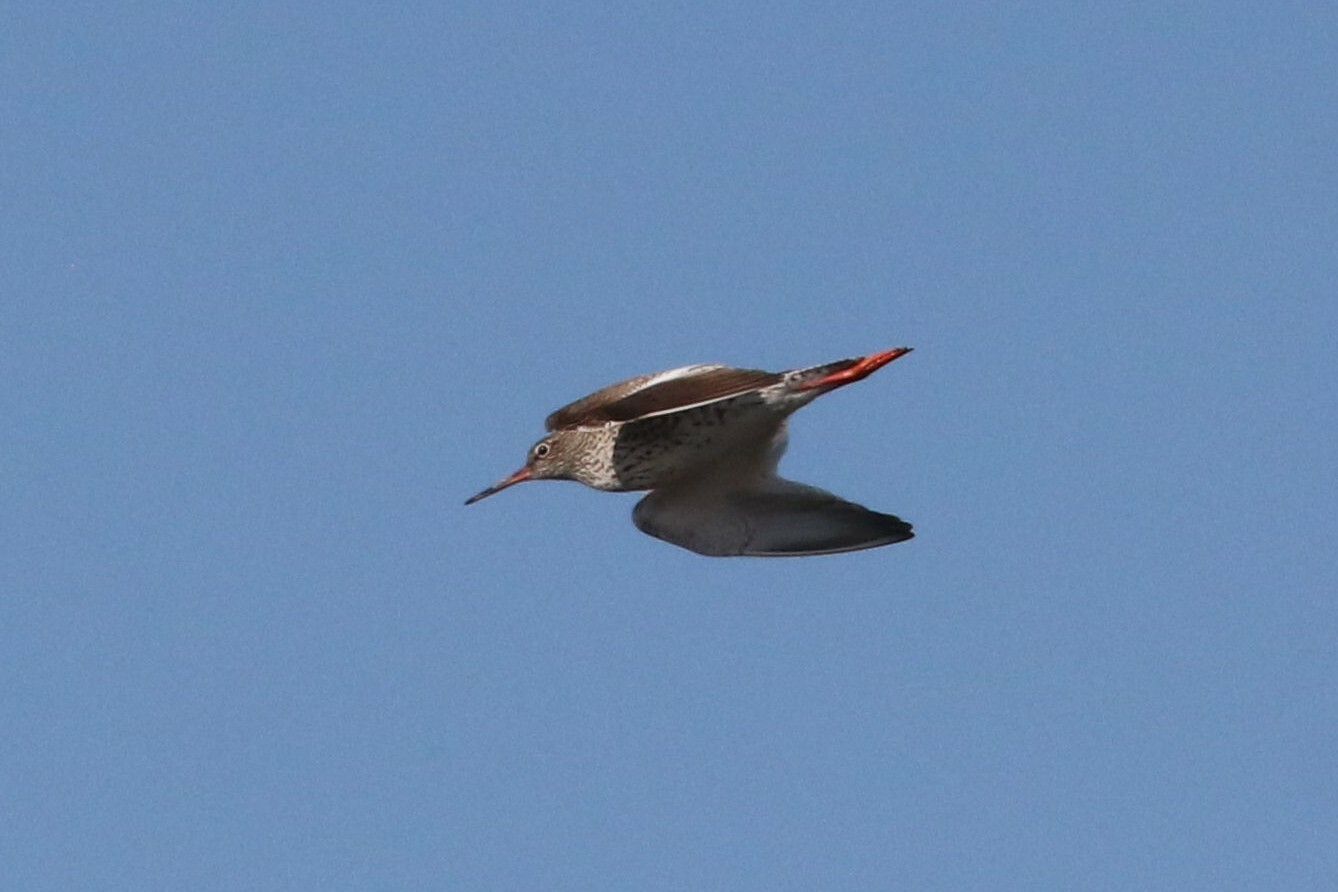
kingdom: Animalia
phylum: Chordata
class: Aves
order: Charadriiformes
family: Scolopacidae
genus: Tringa
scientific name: Tringa totanus
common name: Common redshank
